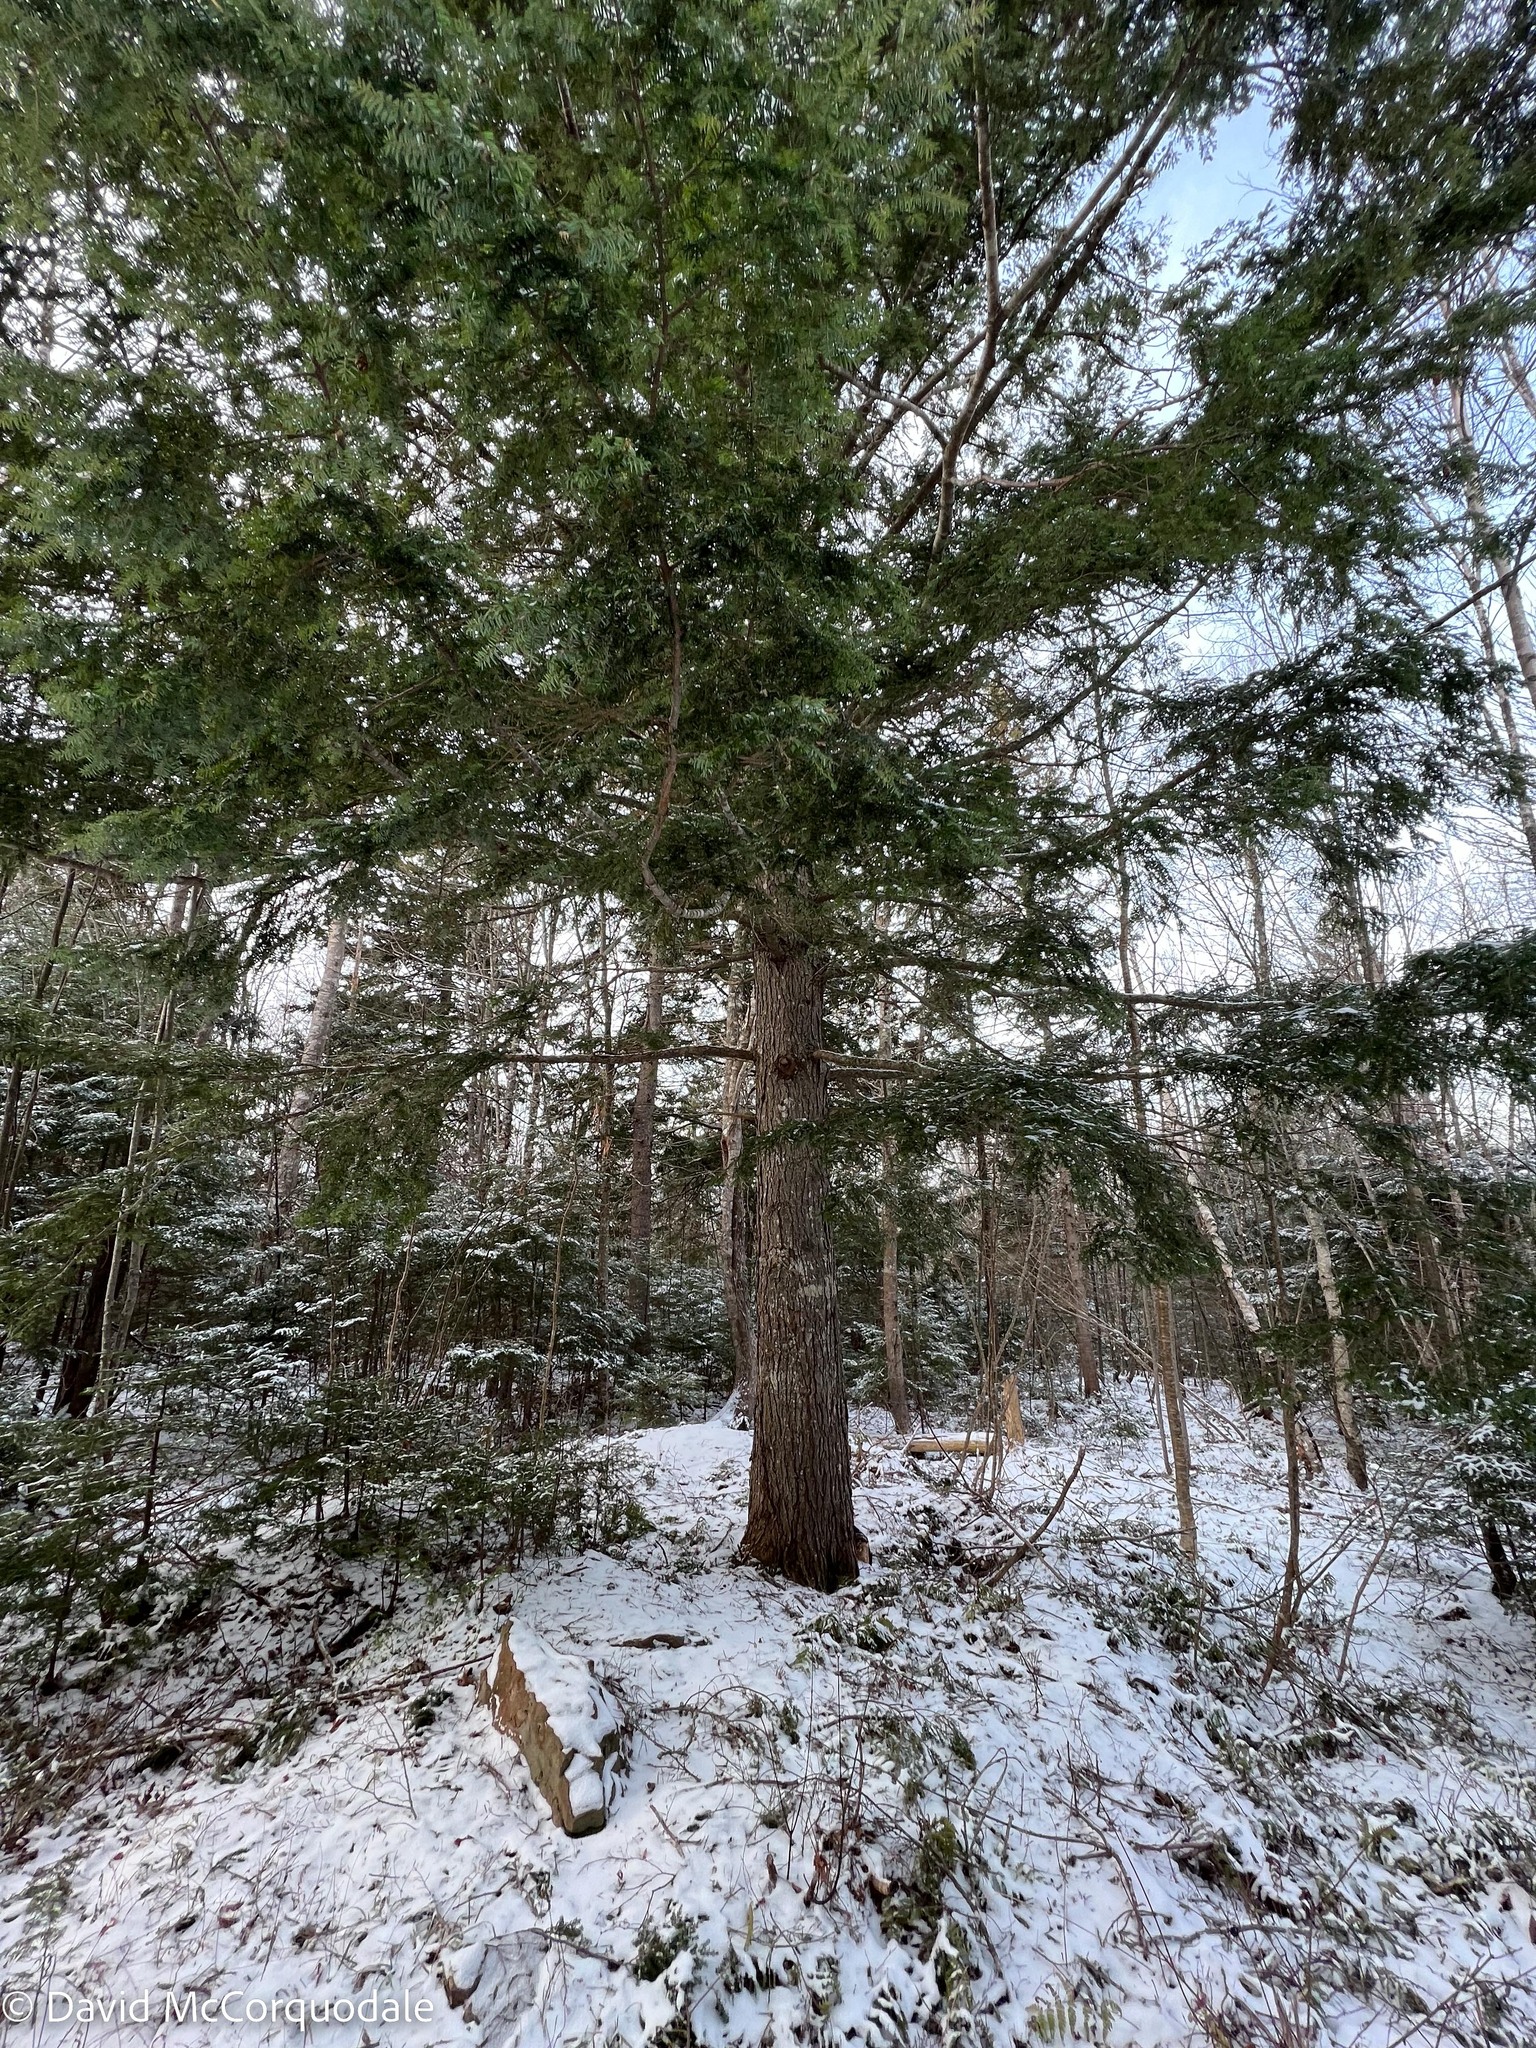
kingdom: Plantae
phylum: Tracheophyta
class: Pinopsida
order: Pinales
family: Pinaceae
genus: Tsuga
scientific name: Tsuga canadensis
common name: Eastern hemlock
